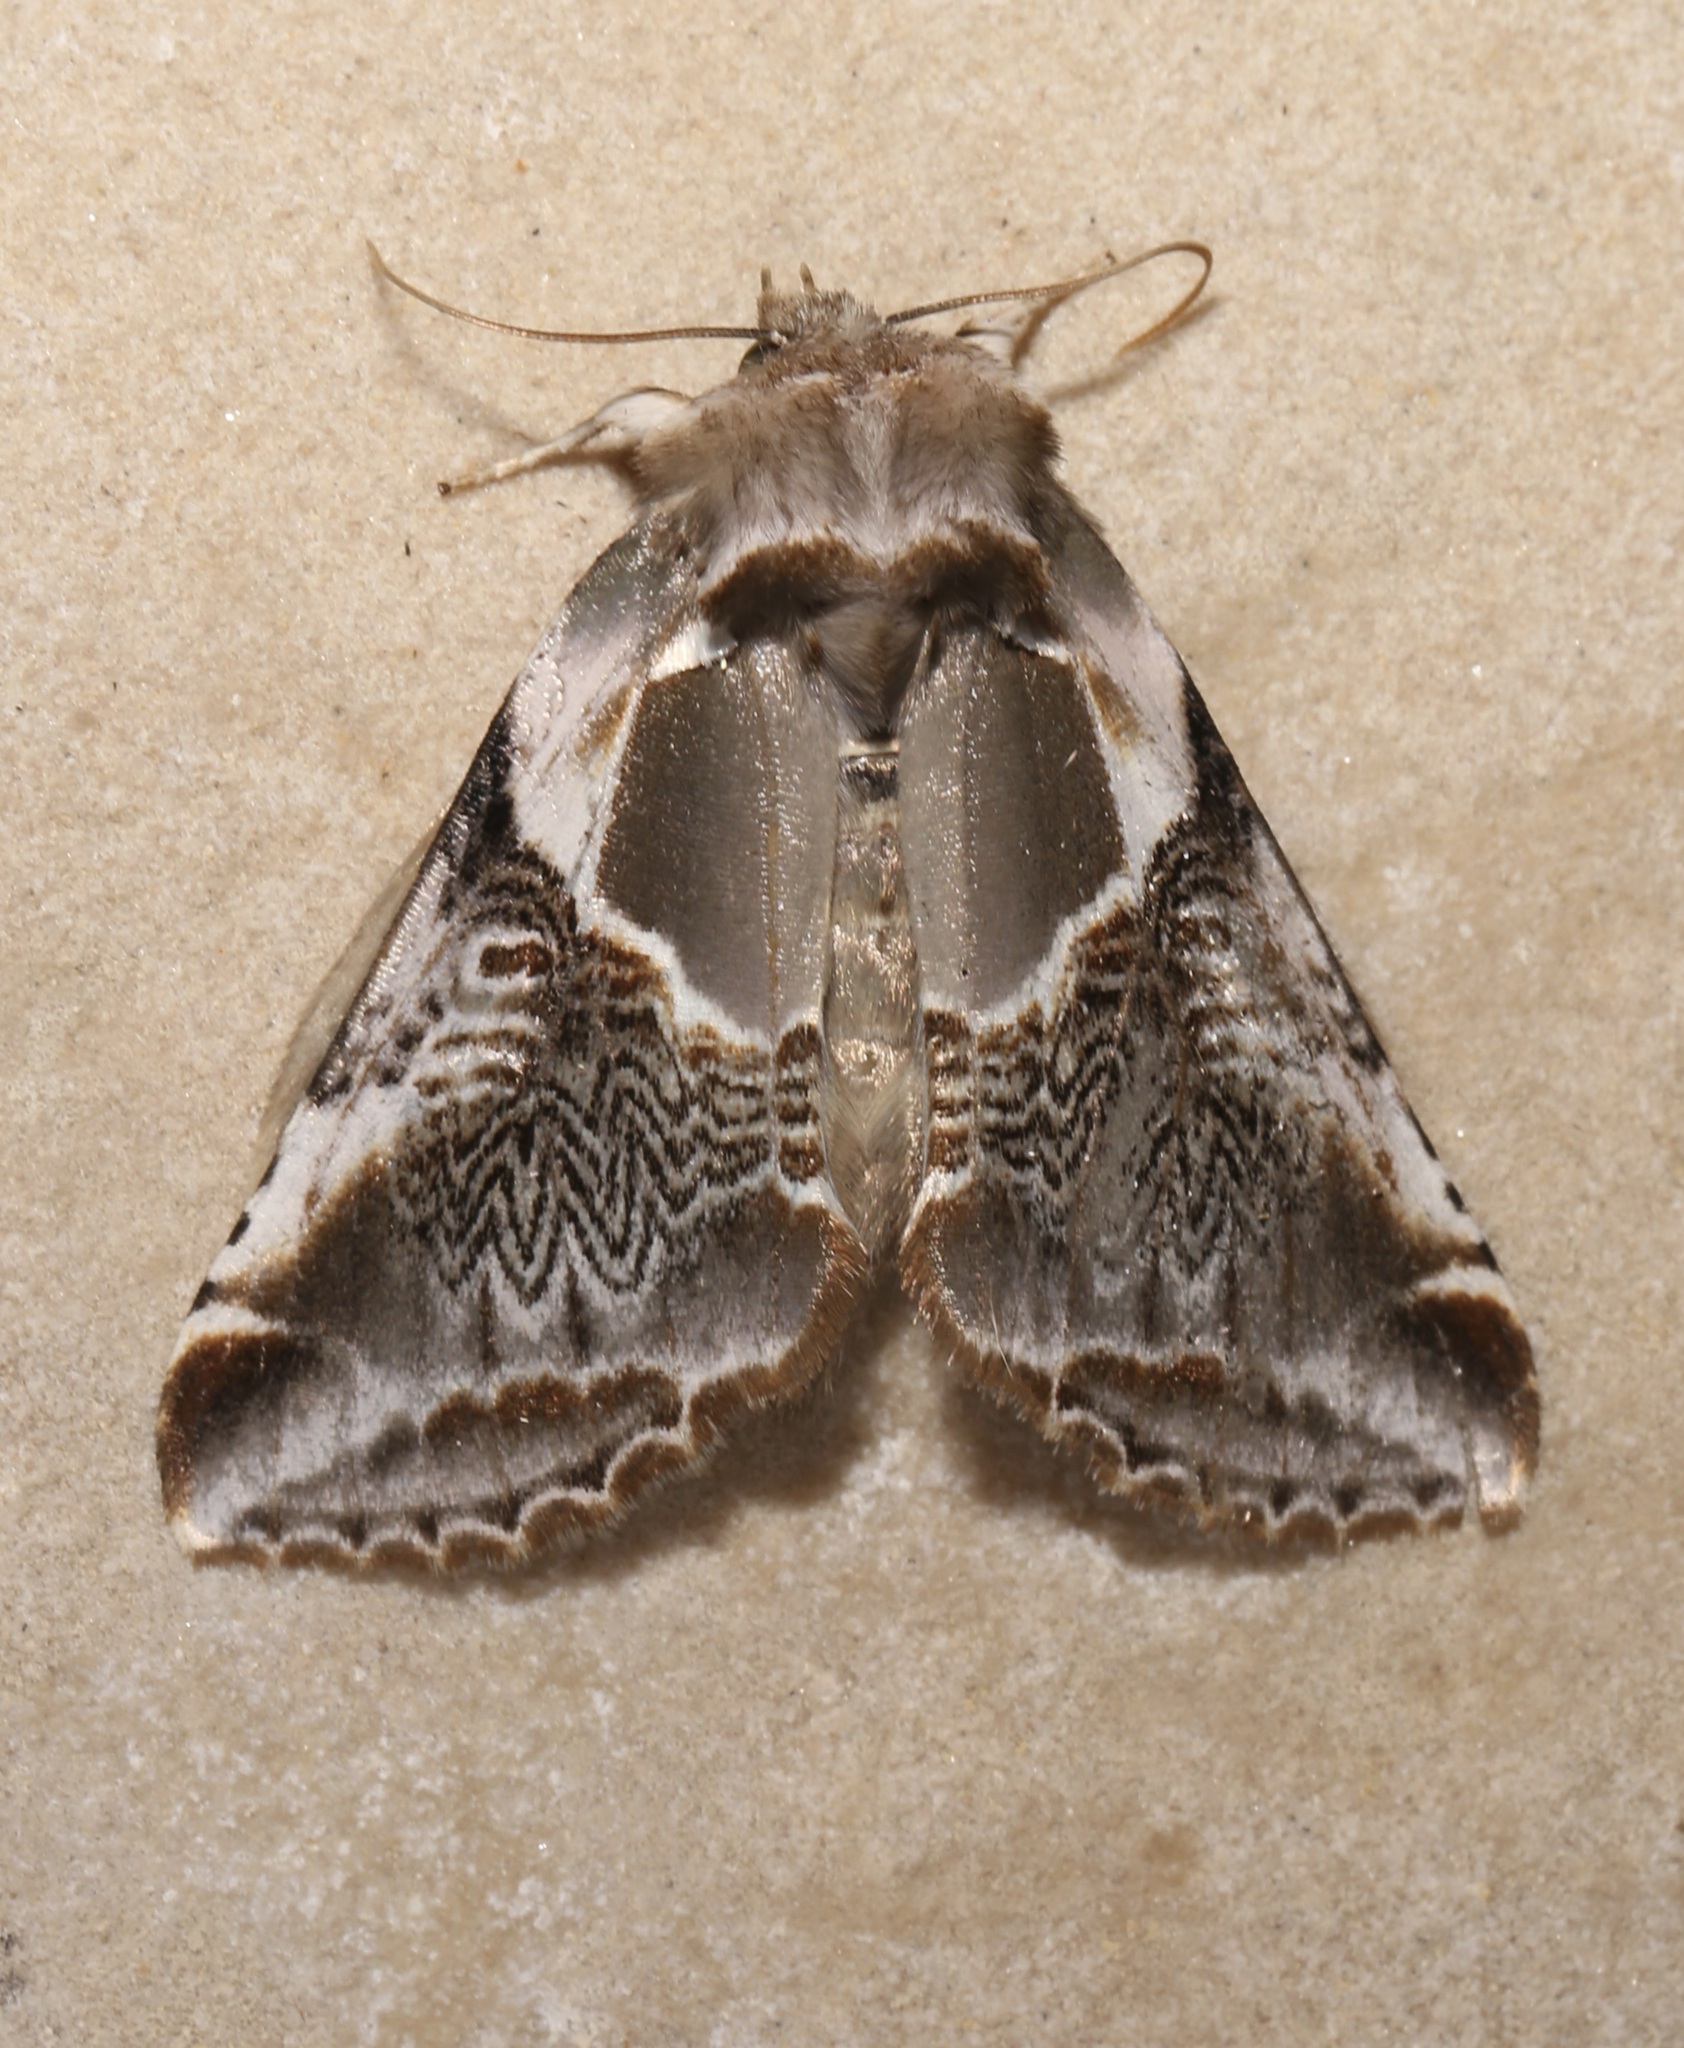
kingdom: Animalia
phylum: Arthropoda
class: Insecta
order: Lepidoptera
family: Drepanidae
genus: Habrosyne
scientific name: Habrosyne scripta
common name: Lettered habrosyne moth
